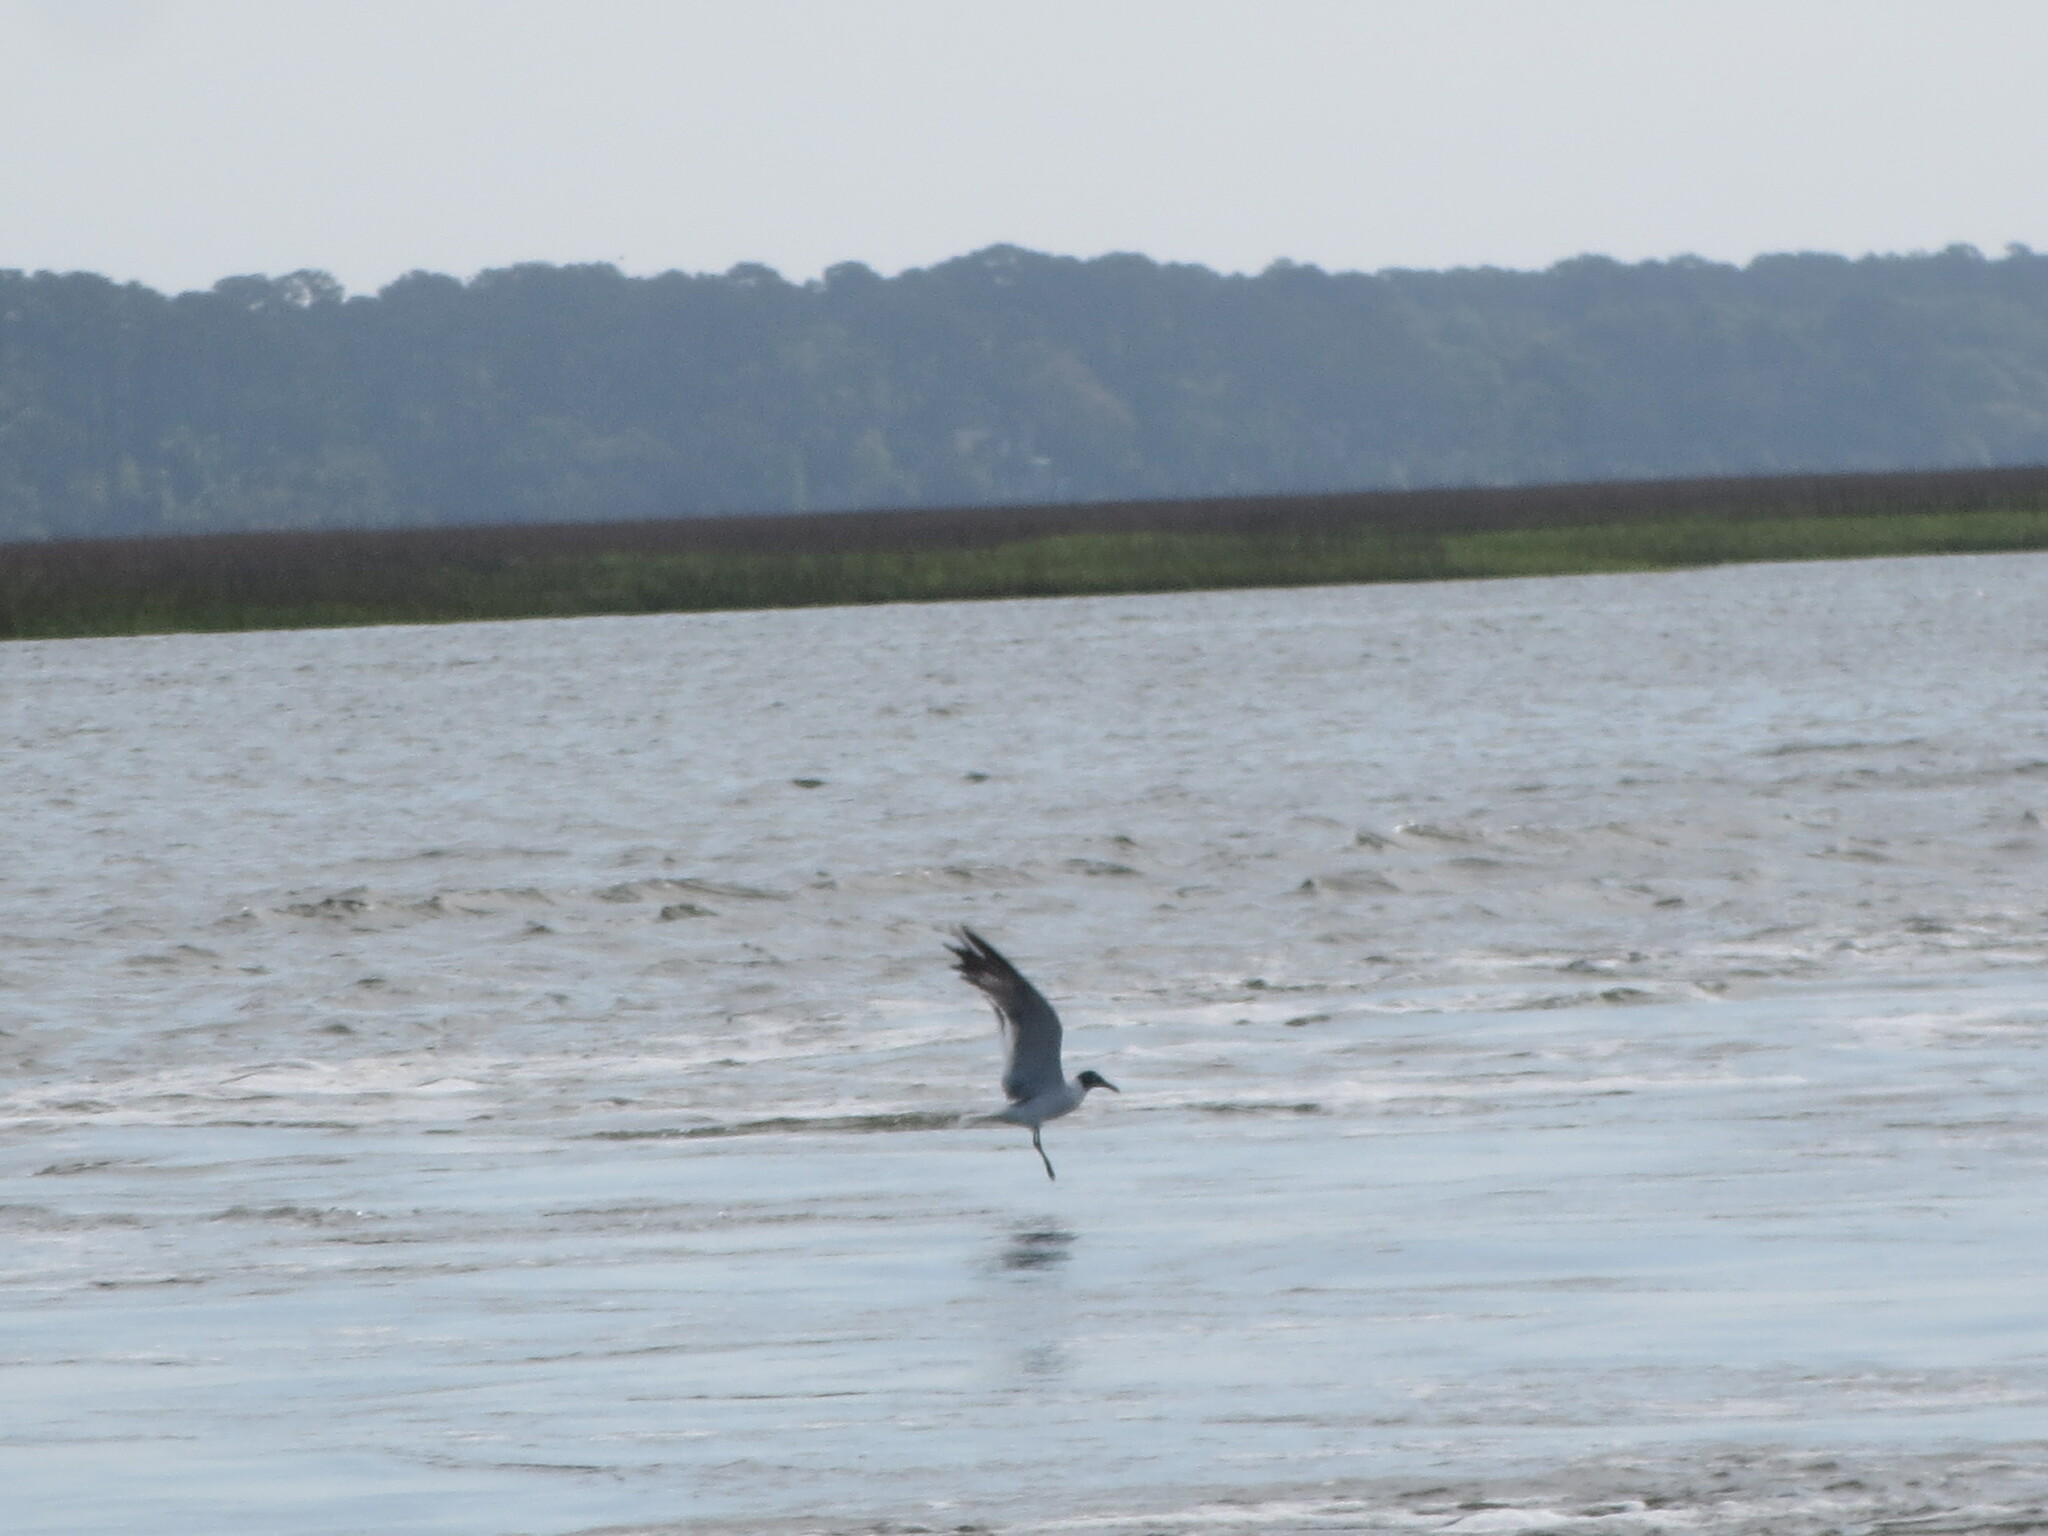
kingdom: Animalia
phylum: Chordata
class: Aves
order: Charadriiformes
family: Laridae
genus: Leucophaeus
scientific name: Leucophaeus atricilla
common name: Laughing gull
